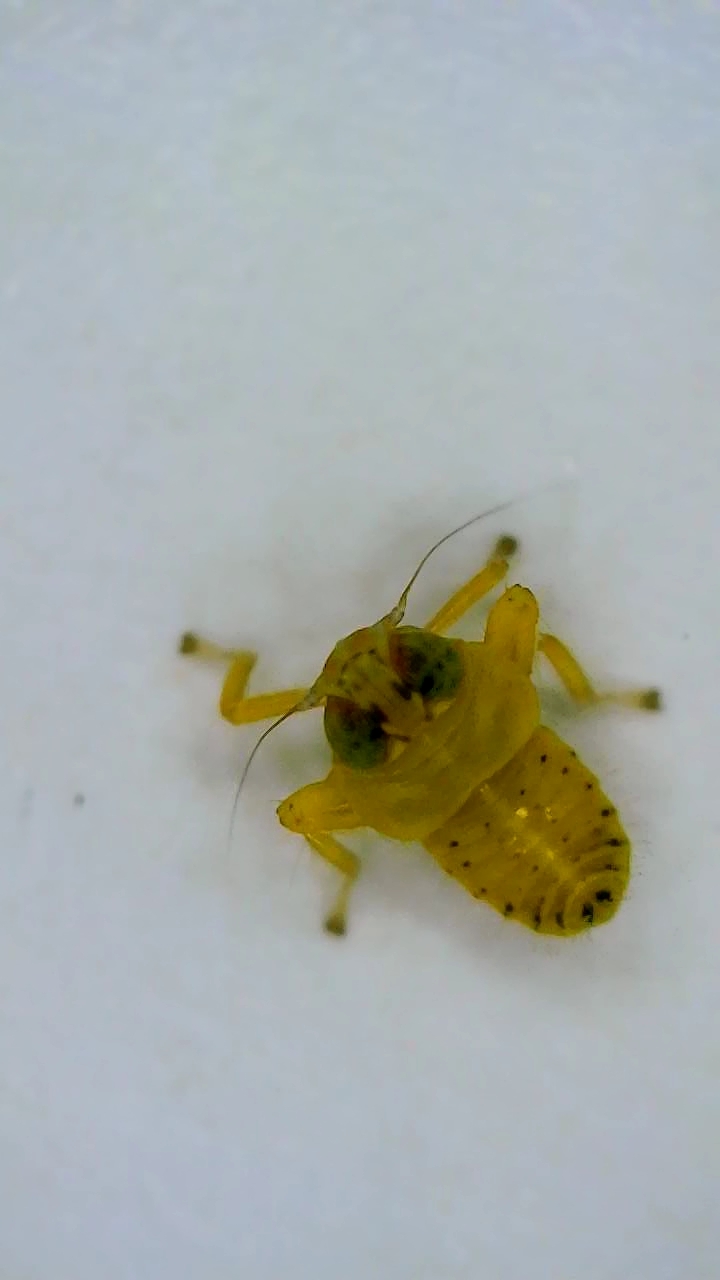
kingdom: Animalia
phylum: Arthropoda
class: Insecta
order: Hemiptera
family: Cicadellidae
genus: Jikradia
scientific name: Jikradia olitoria
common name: Coppery leafhopper
